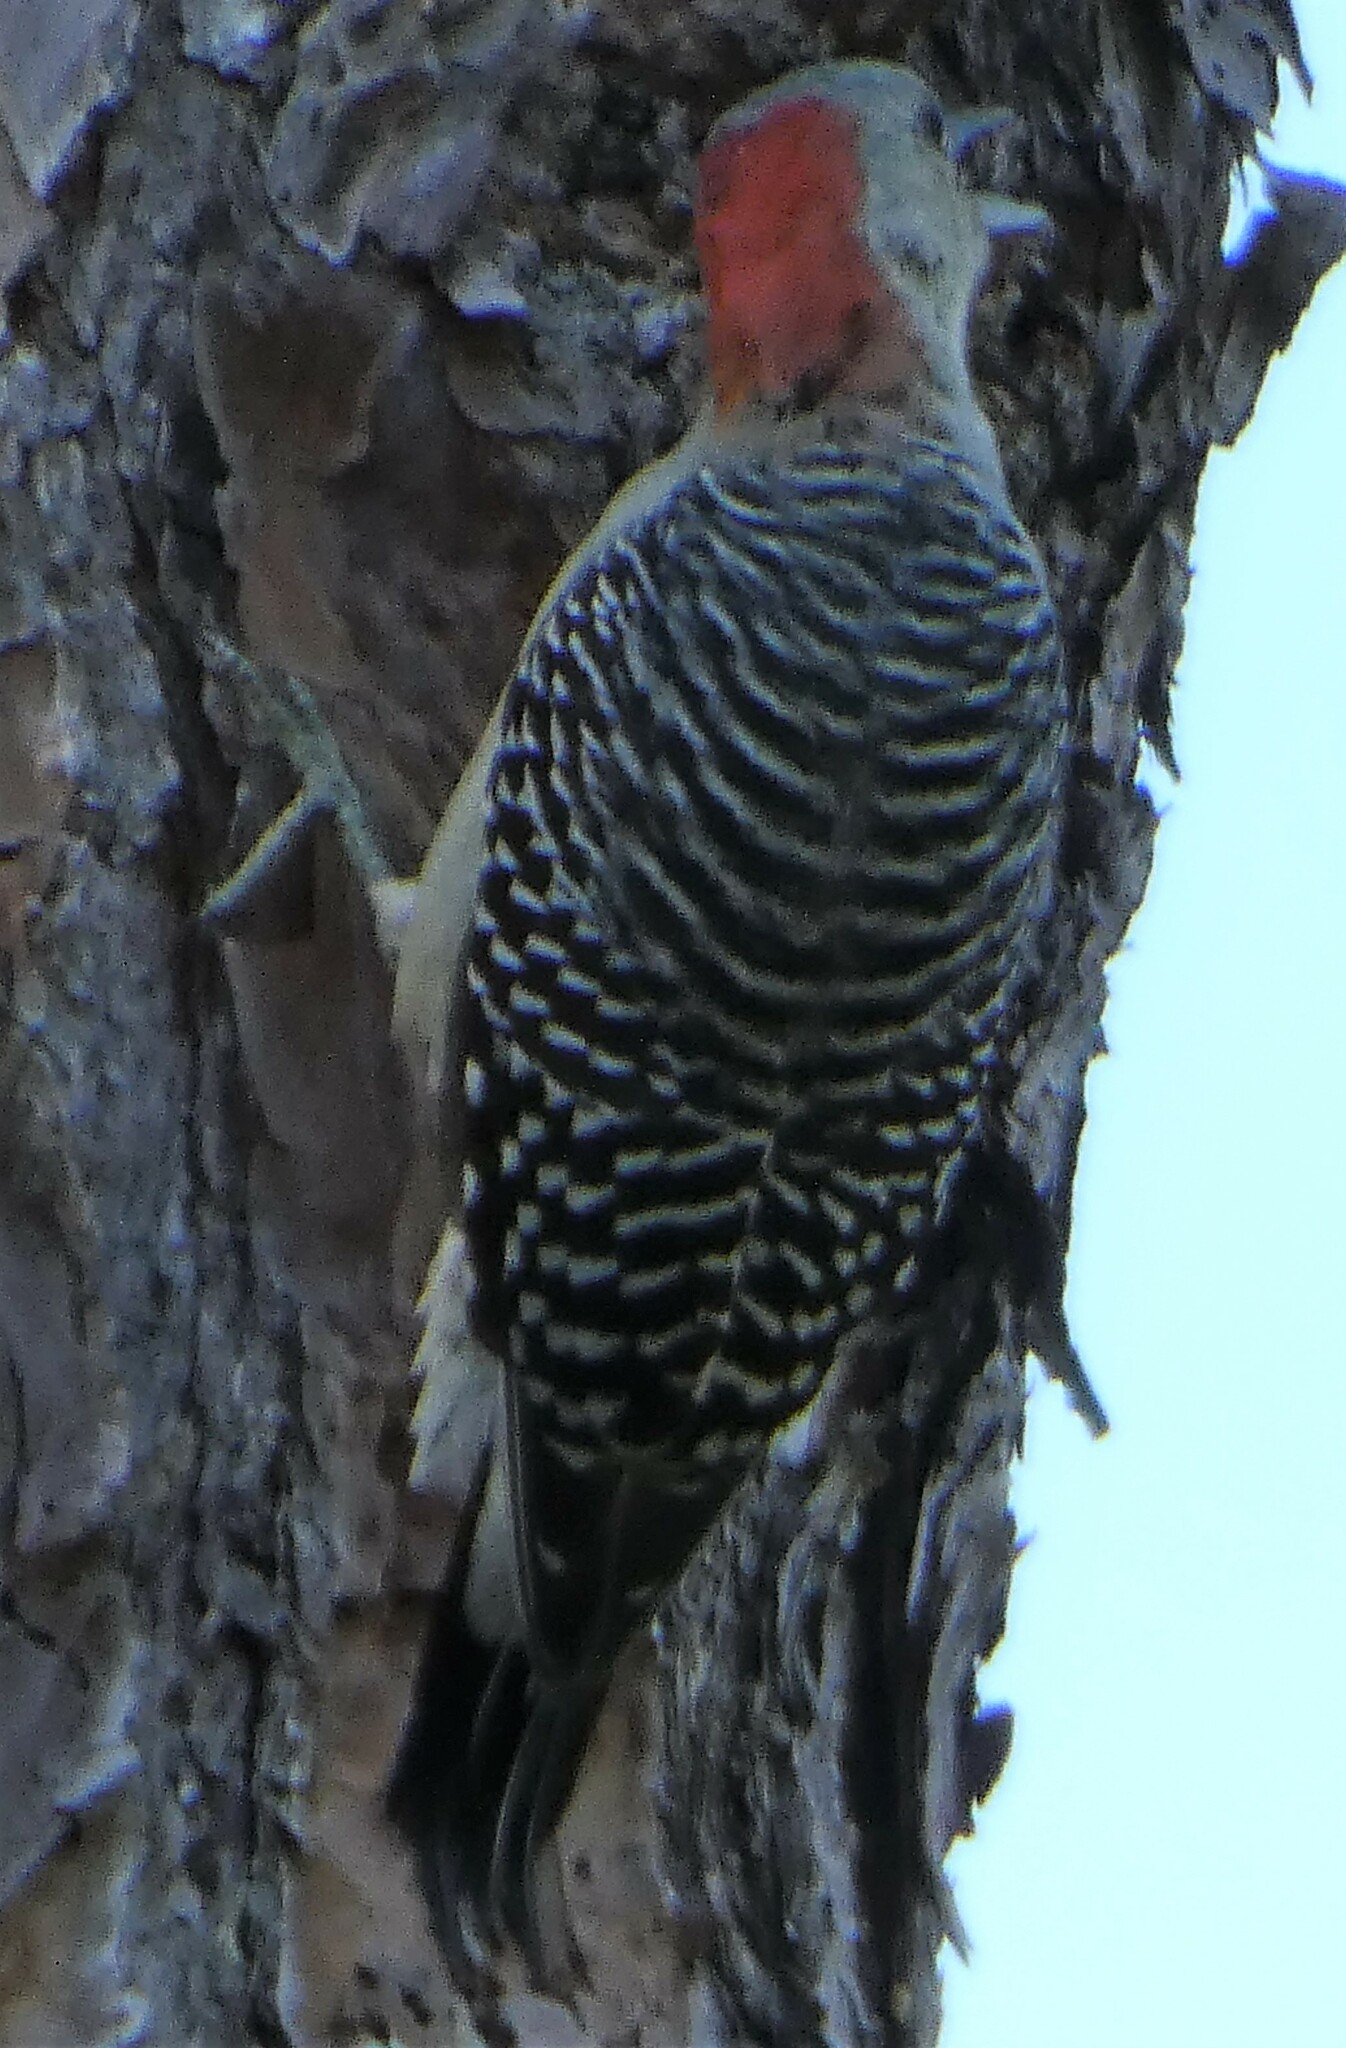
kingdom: Animalia
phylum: Chordata
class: Aves
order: Piciformes
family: Picidae
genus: Melanerpes
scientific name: Melanerpes carolinus
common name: Red-bellied woodpecker
